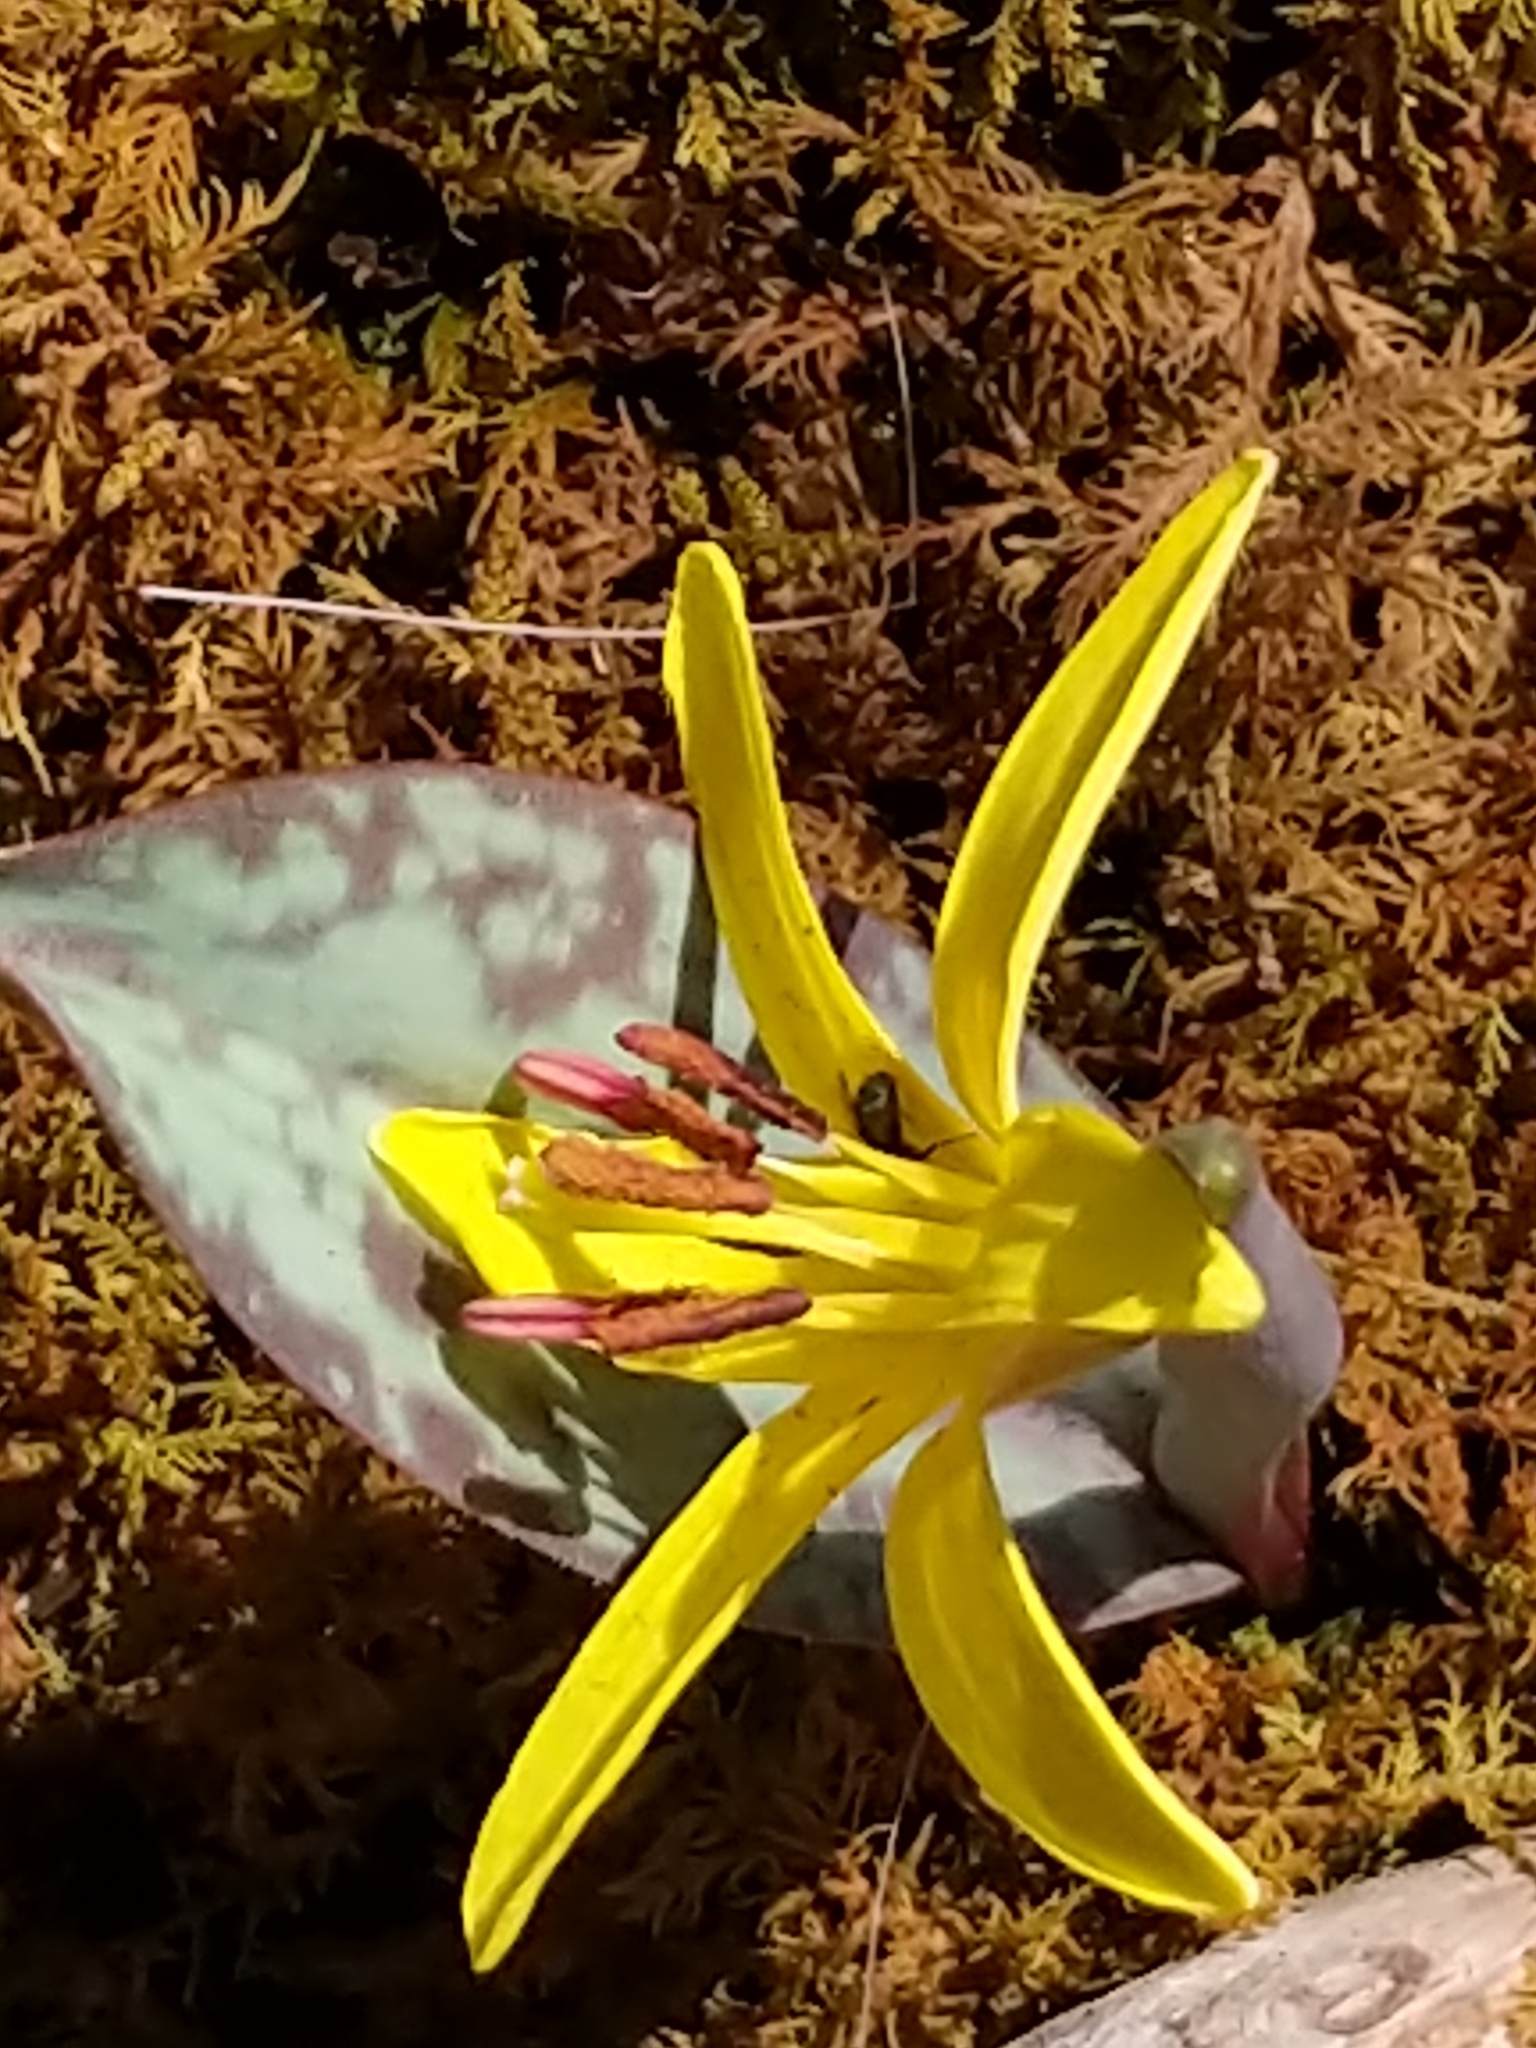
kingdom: Plantae
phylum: Tracheophyta
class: Liliopsida
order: Liliales
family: Liliaceae
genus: Erythronium
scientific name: Erythronium americanum
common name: Yellow adder's-tongue
